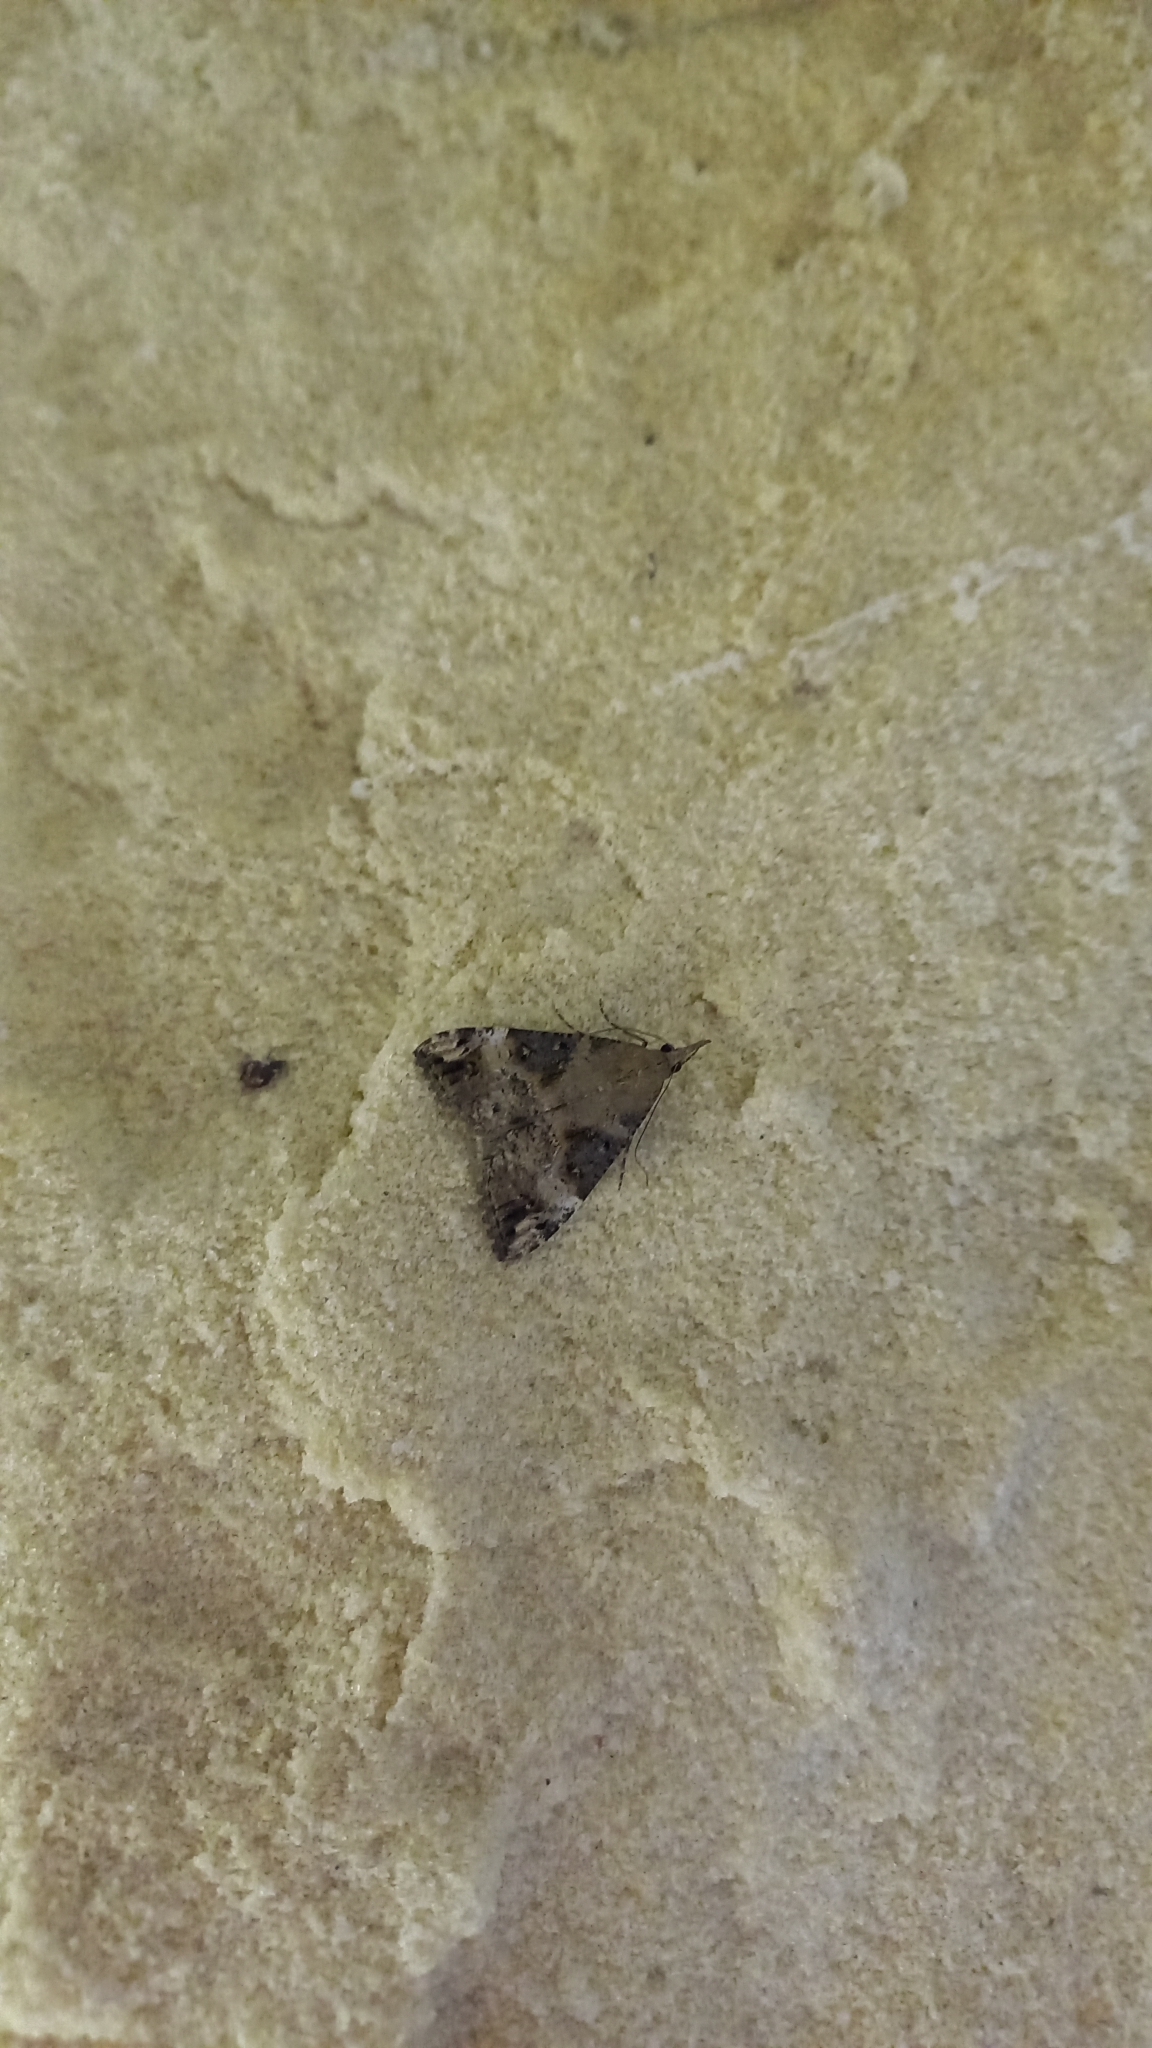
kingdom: Animalia
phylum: Arthropoda
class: Insecta
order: Lepidoptera
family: Erebidae
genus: Hypena
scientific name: Hypena obsitalis
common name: Bloxworth snout
